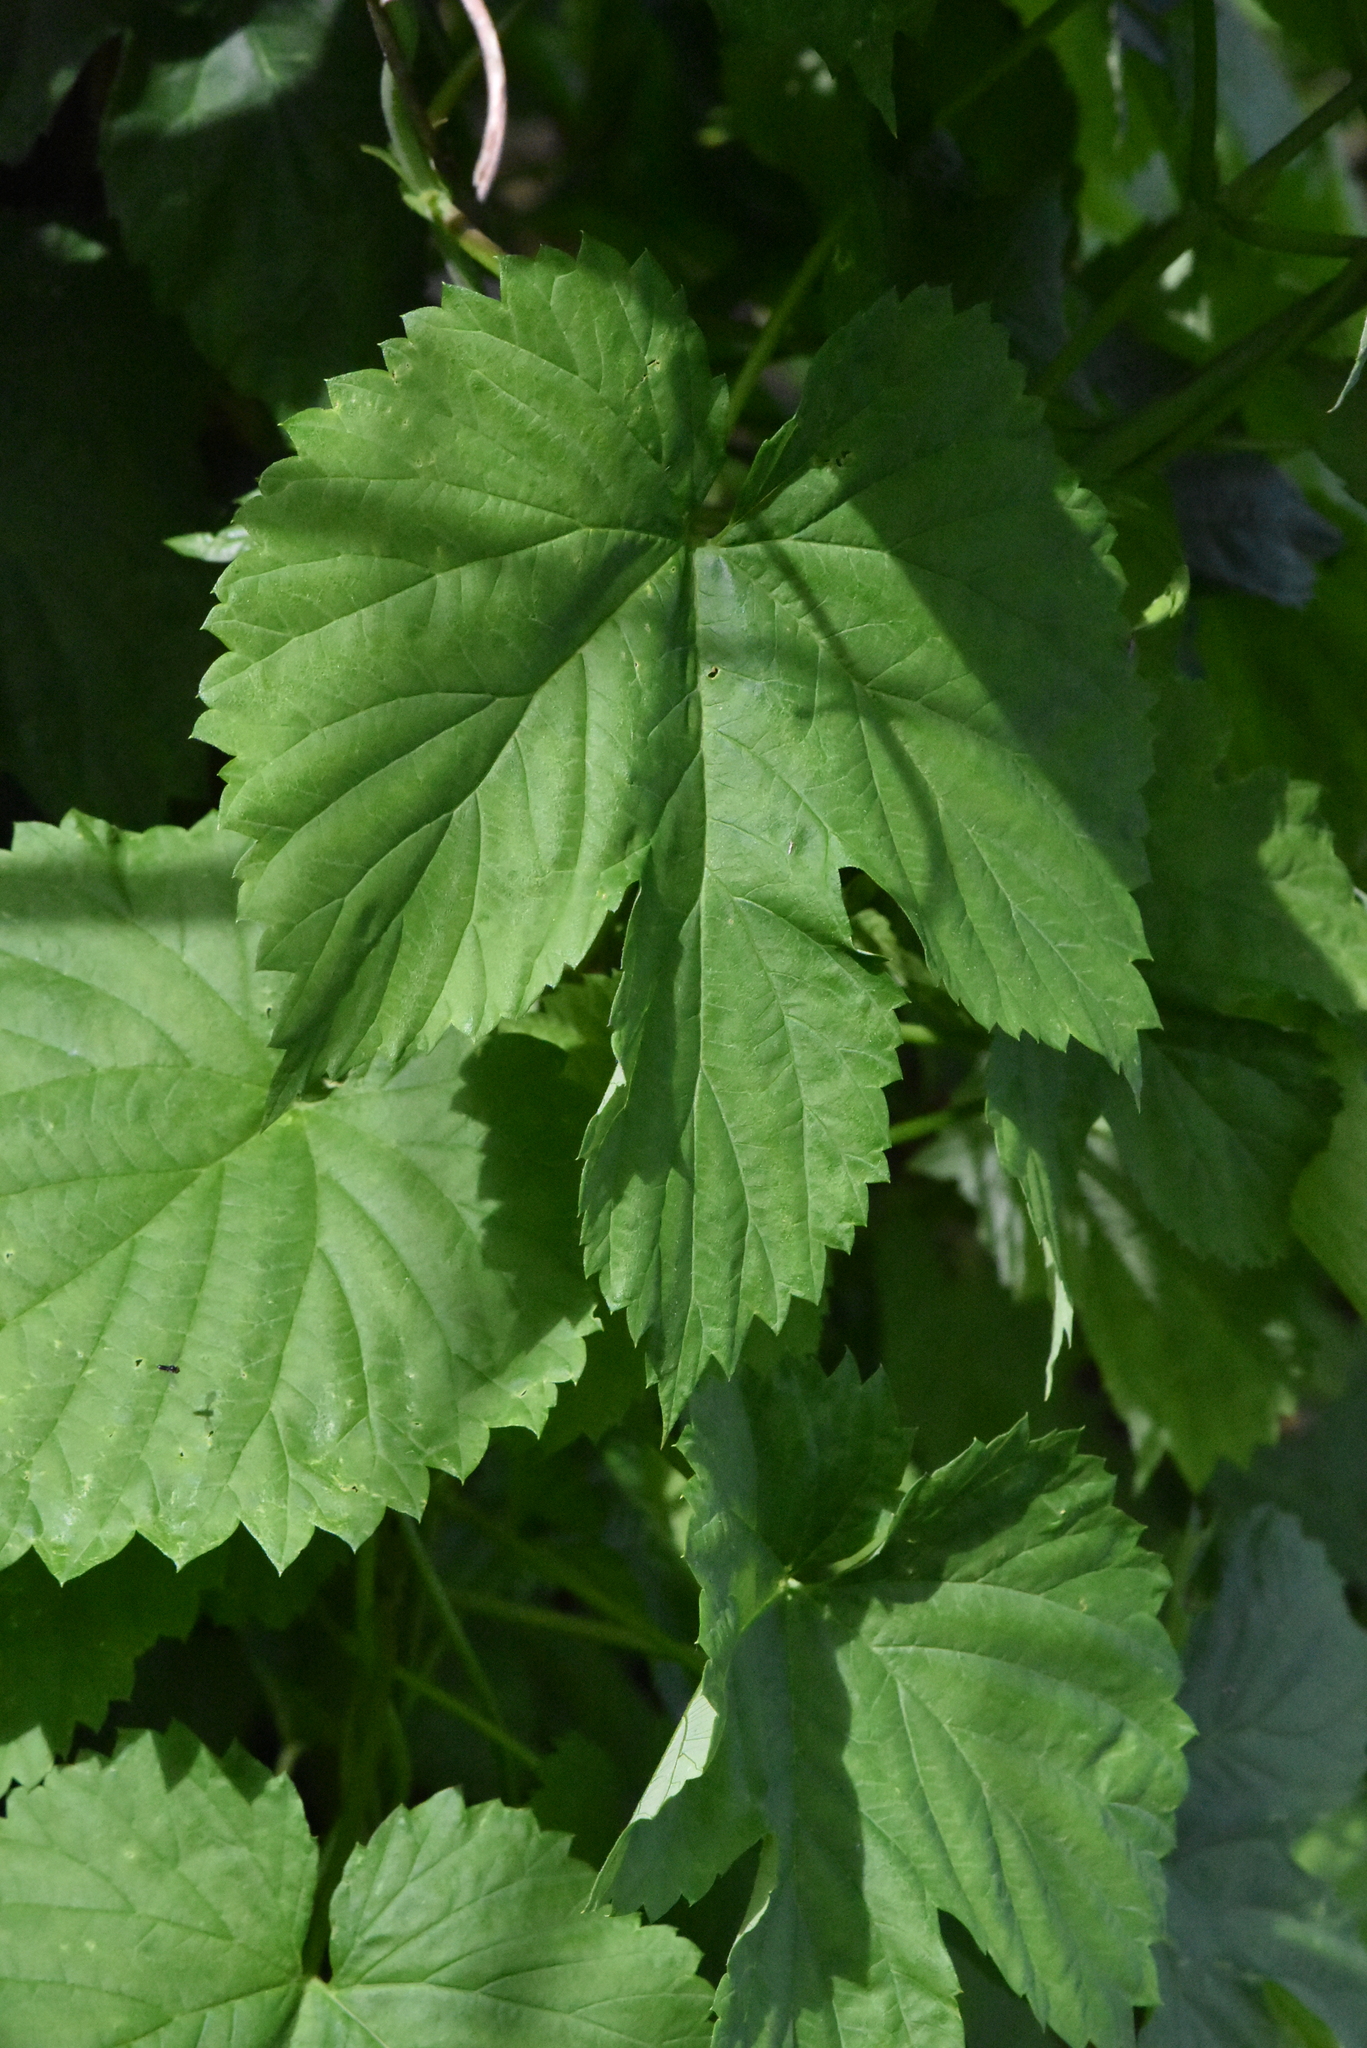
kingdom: Plantae
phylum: Tracheophyta
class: Magnoliopsida
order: Rosales
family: Cannabaceae
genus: Humulus
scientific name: Humulus lupulus
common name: Hop
